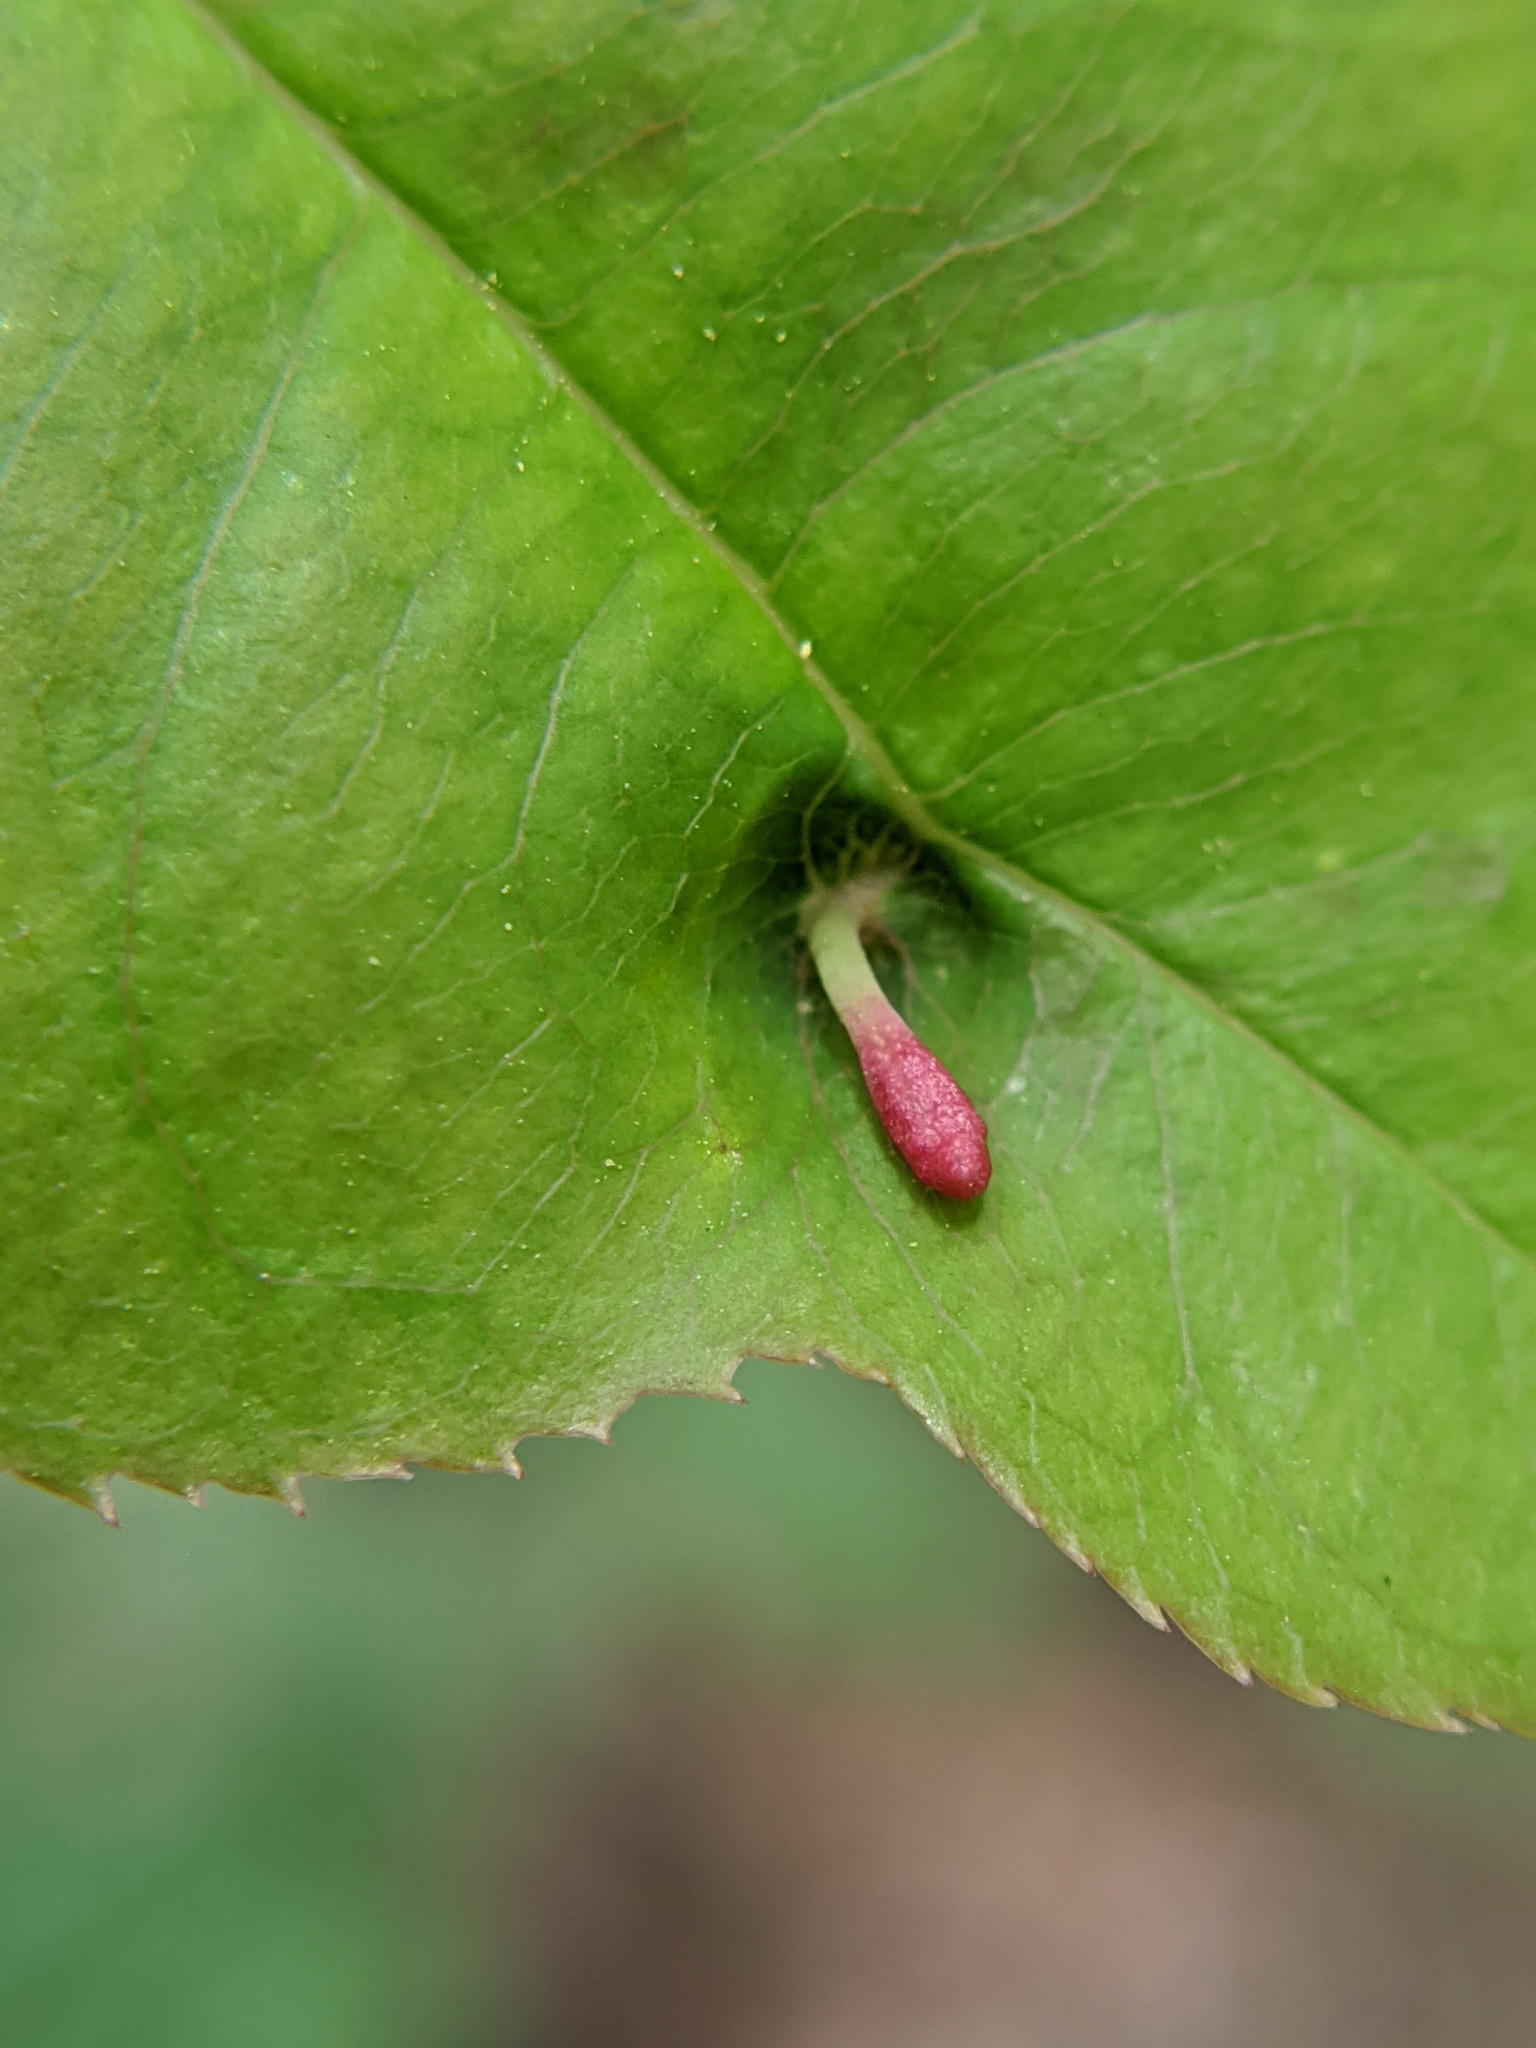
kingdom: Animalia
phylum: Arthropoda
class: Arachnida
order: Trombidiformes
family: Eriophyidae
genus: Eriophyes
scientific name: Eriophyes
